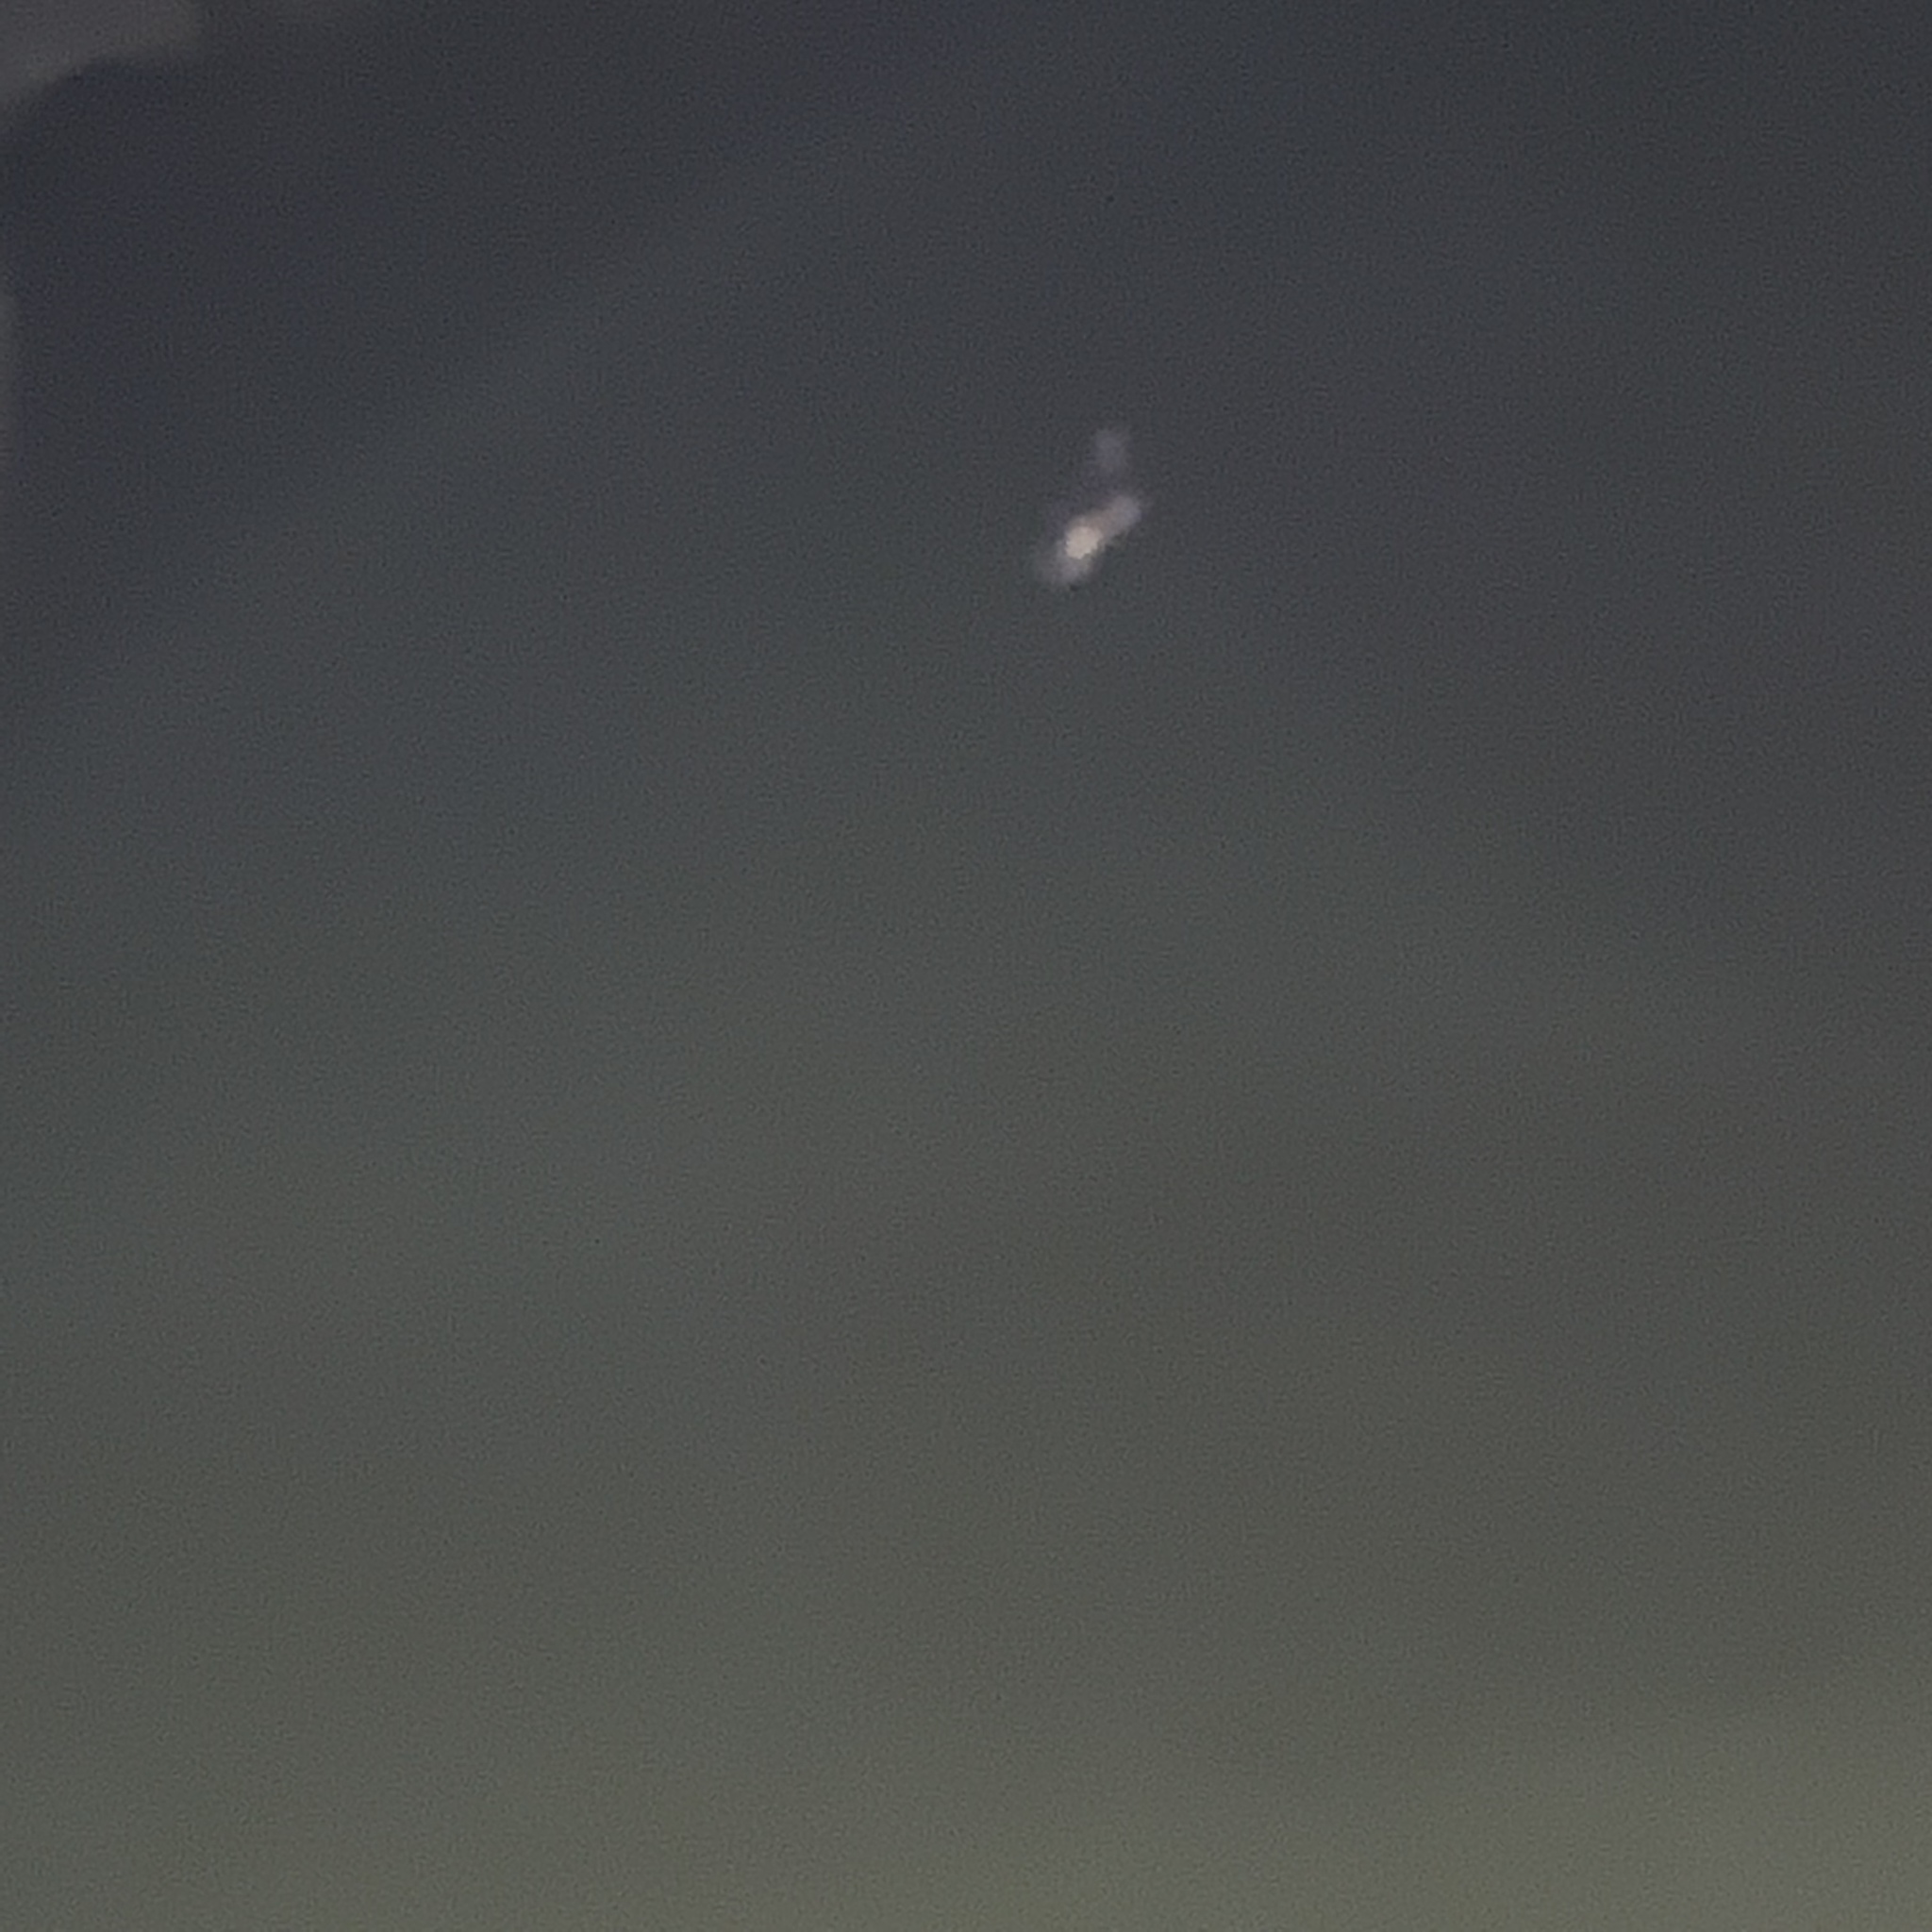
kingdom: Animalia
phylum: Chordata
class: Aves
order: Gruiformes
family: Rallidae
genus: Gallinula
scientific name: Gallinula chloropus
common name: Common moorhen
